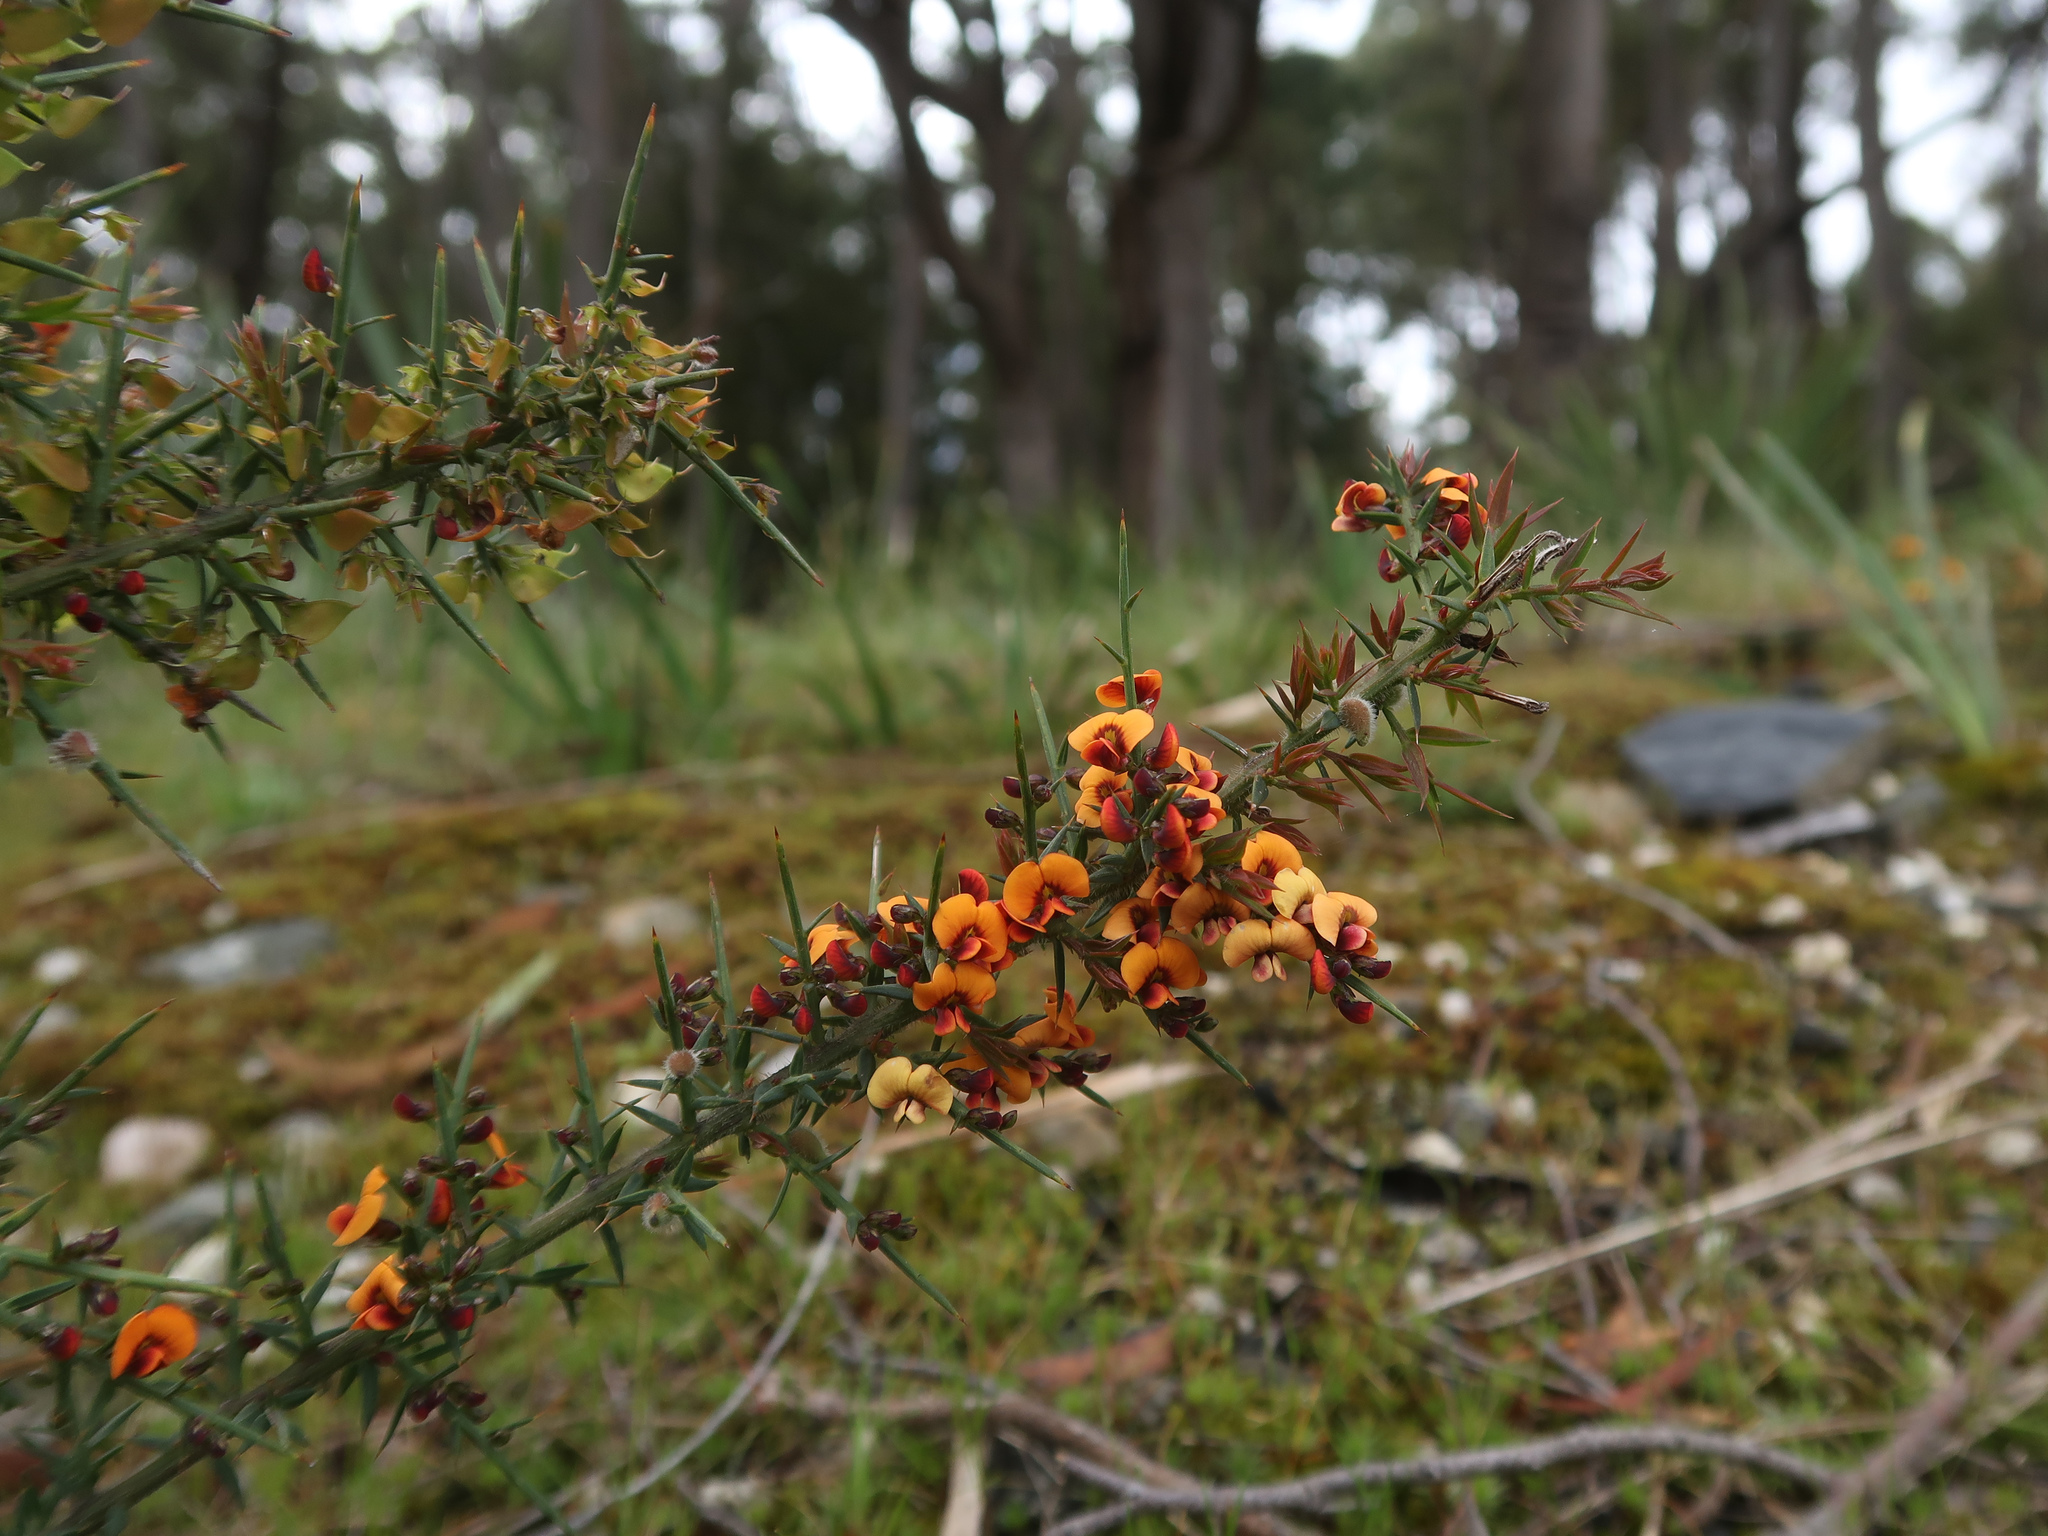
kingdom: Plantae
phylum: Tracheophyta
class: Magnoliopsida
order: Fabales
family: Fabaceae
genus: Daviesia
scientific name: Daviesia ulicifolia
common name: Gorse bitter-pea
